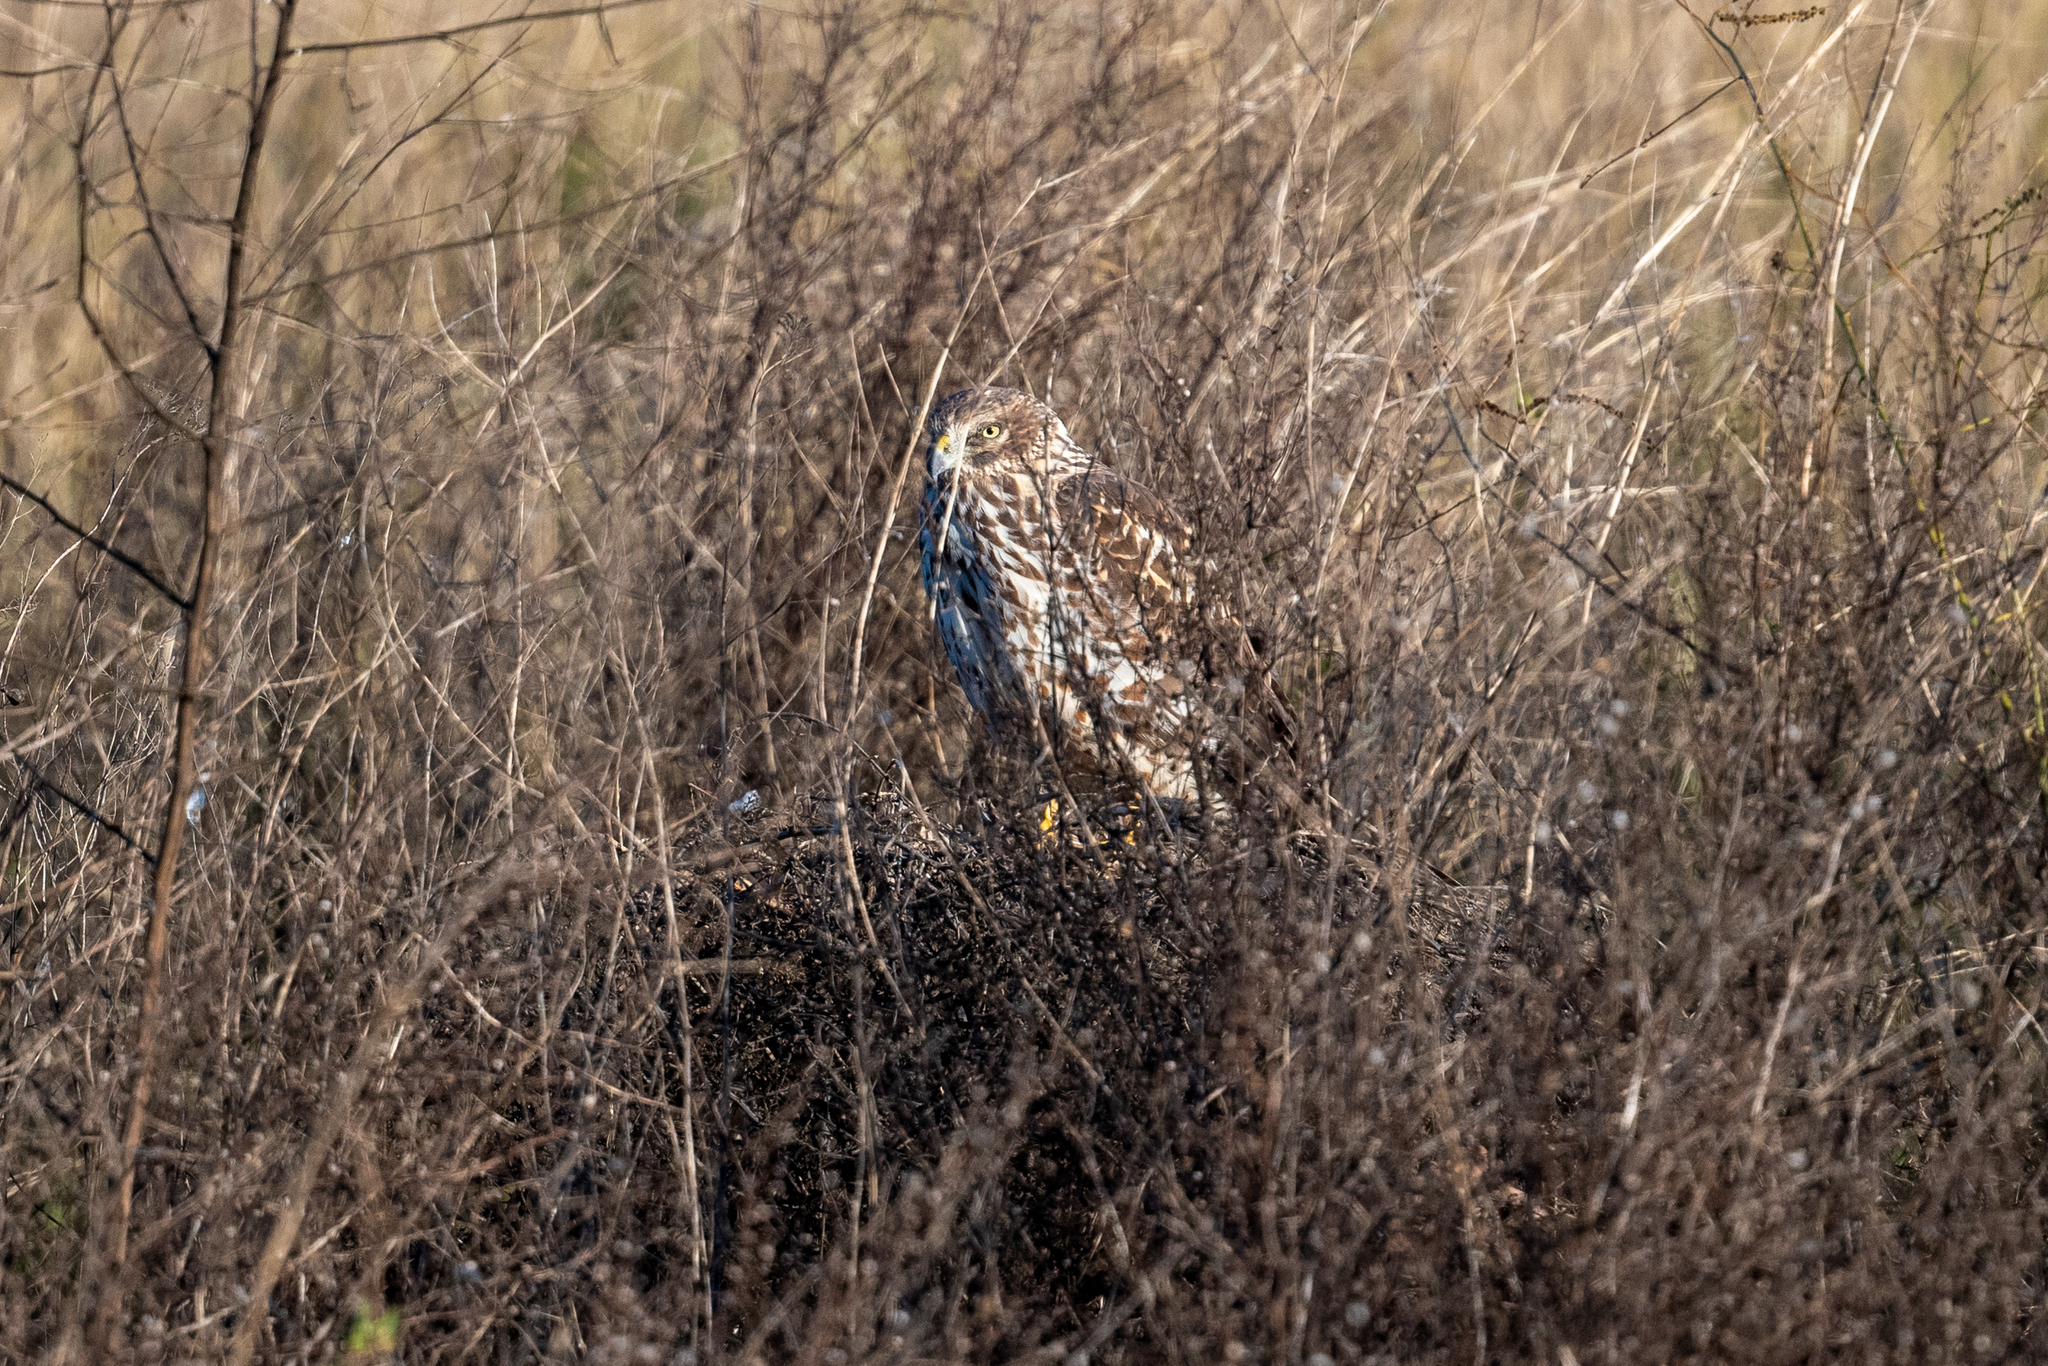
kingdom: Animalia
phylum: Chordata
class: Aves
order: Accipitriformes
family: Accipitridae
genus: Circus
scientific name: Circus cyaneus
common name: Hen harrier
